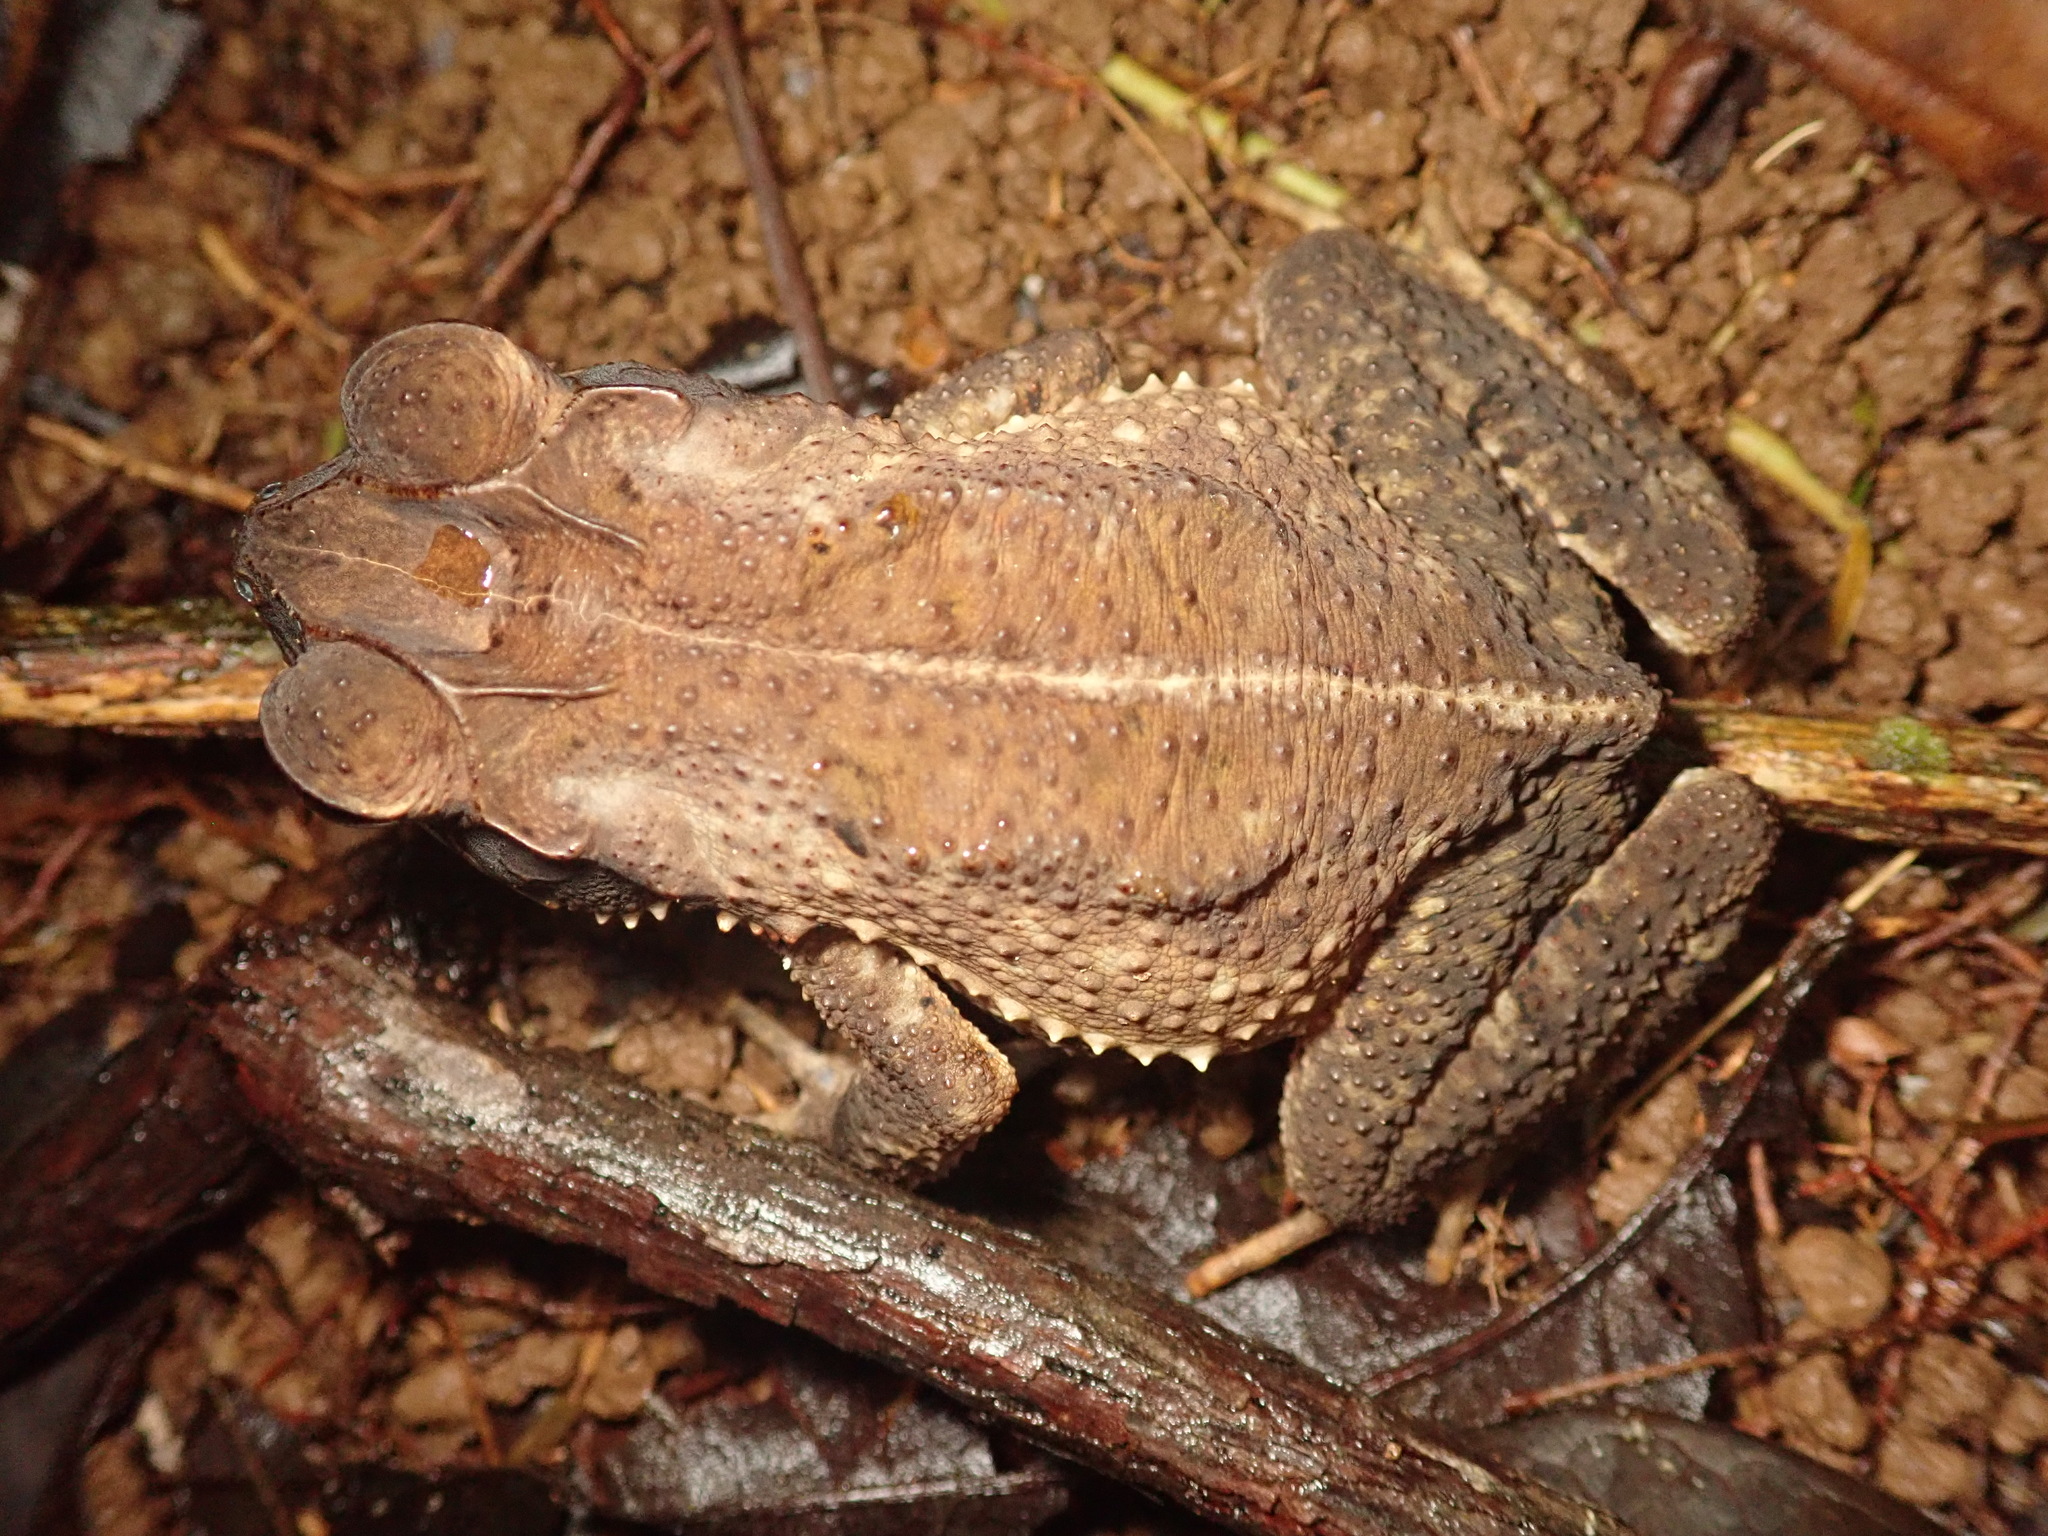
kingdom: Animalia
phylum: Chordata
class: Amphibia
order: Anura
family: Bufonidae
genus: Incilius
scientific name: Incilius melanochlorus
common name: Dark green toad
